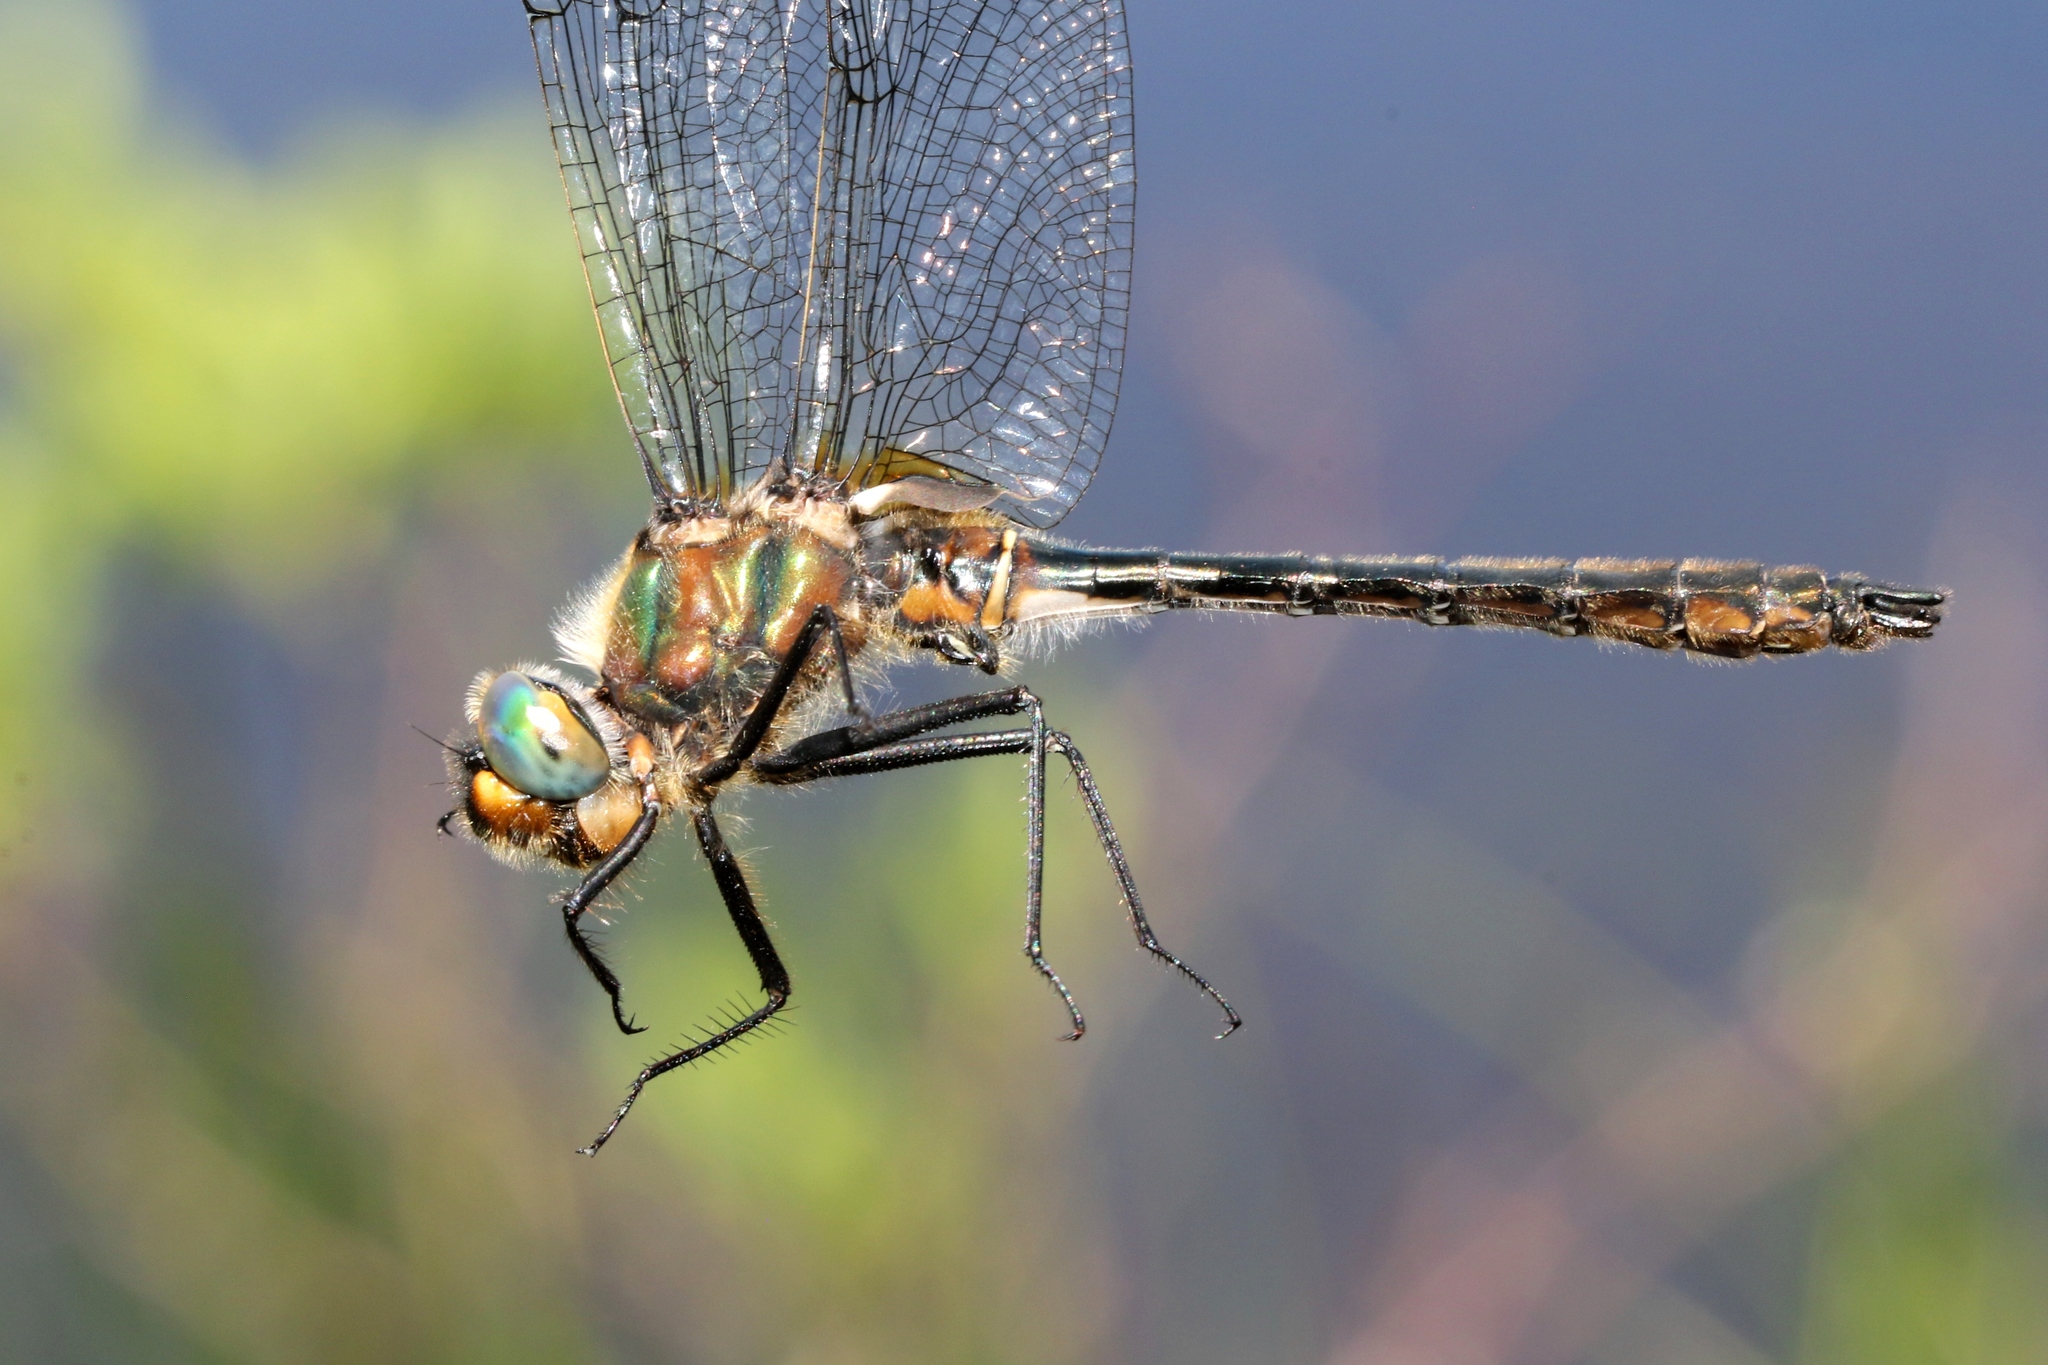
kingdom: Animalia
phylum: Arthropoda
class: Insecta
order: Odonata
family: Corduliidae
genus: Cordulia
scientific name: Cordulia shurtleffii
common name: American emerald
